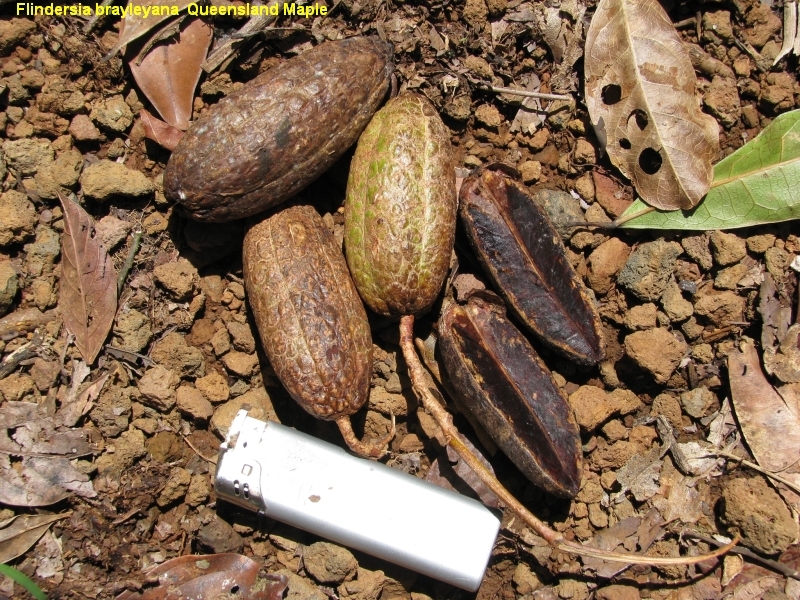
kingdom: Plantae
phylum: Tracheophyta
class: Magnoliopsida
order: Sapindales
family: Rutaceae
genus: Flindersia
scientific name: Flindersia brayleyana
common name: Queensland maple
